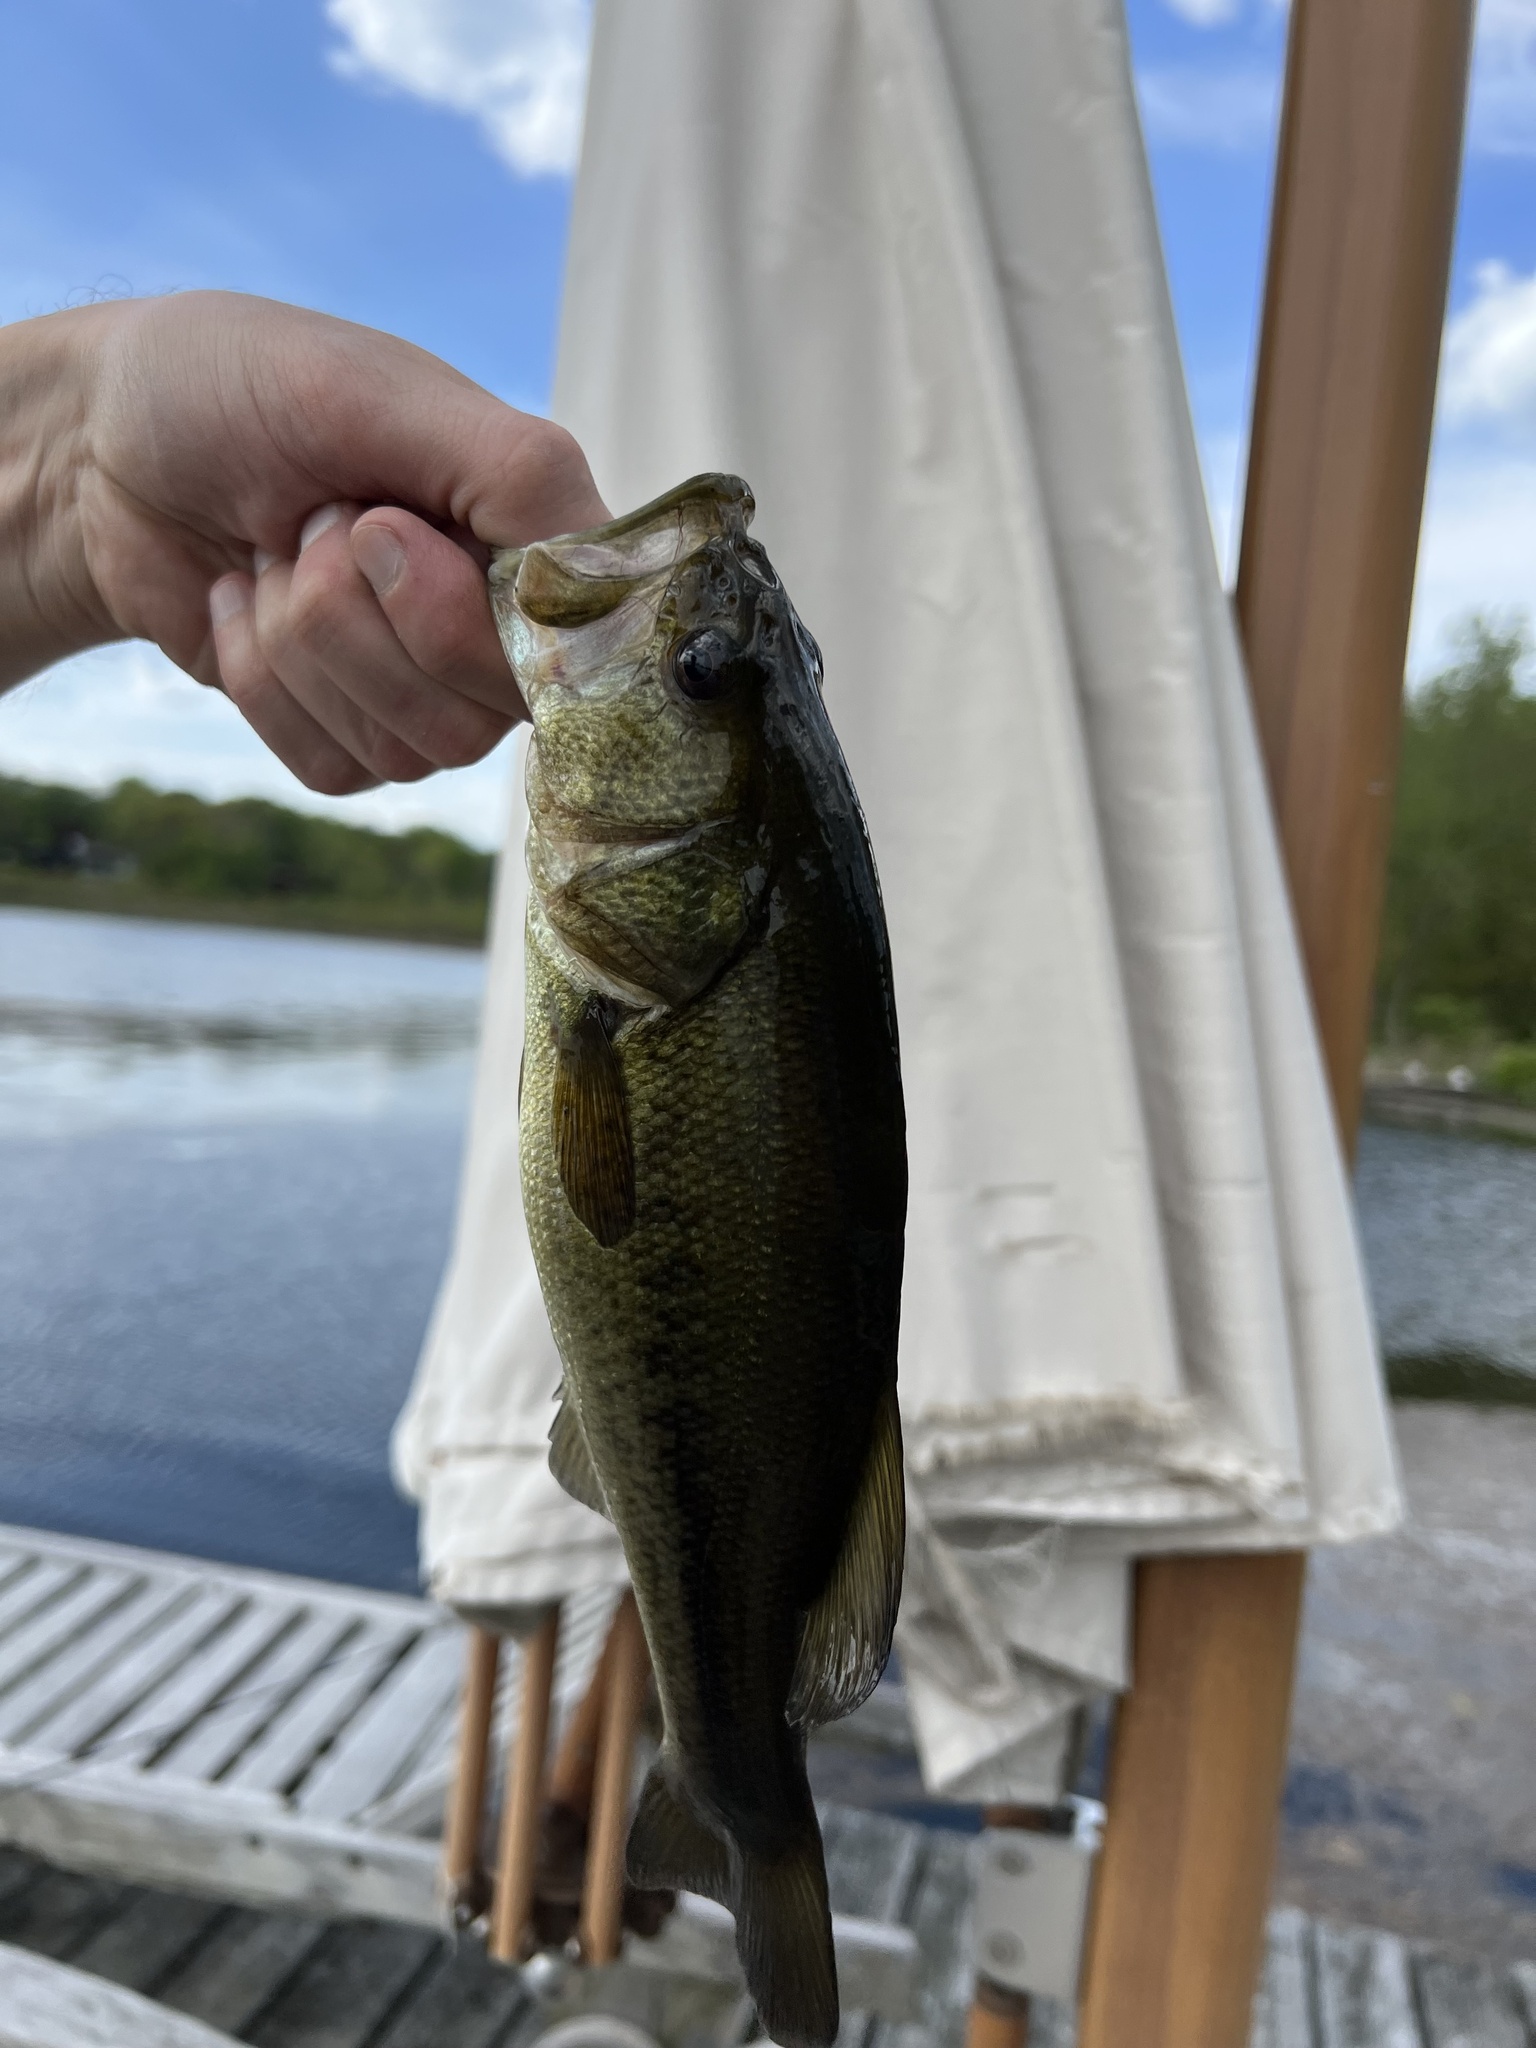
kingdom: Animalia
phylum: Chordata
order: Perciformes
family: Centrarchidae
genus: Micropterus
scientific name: Micropterus
